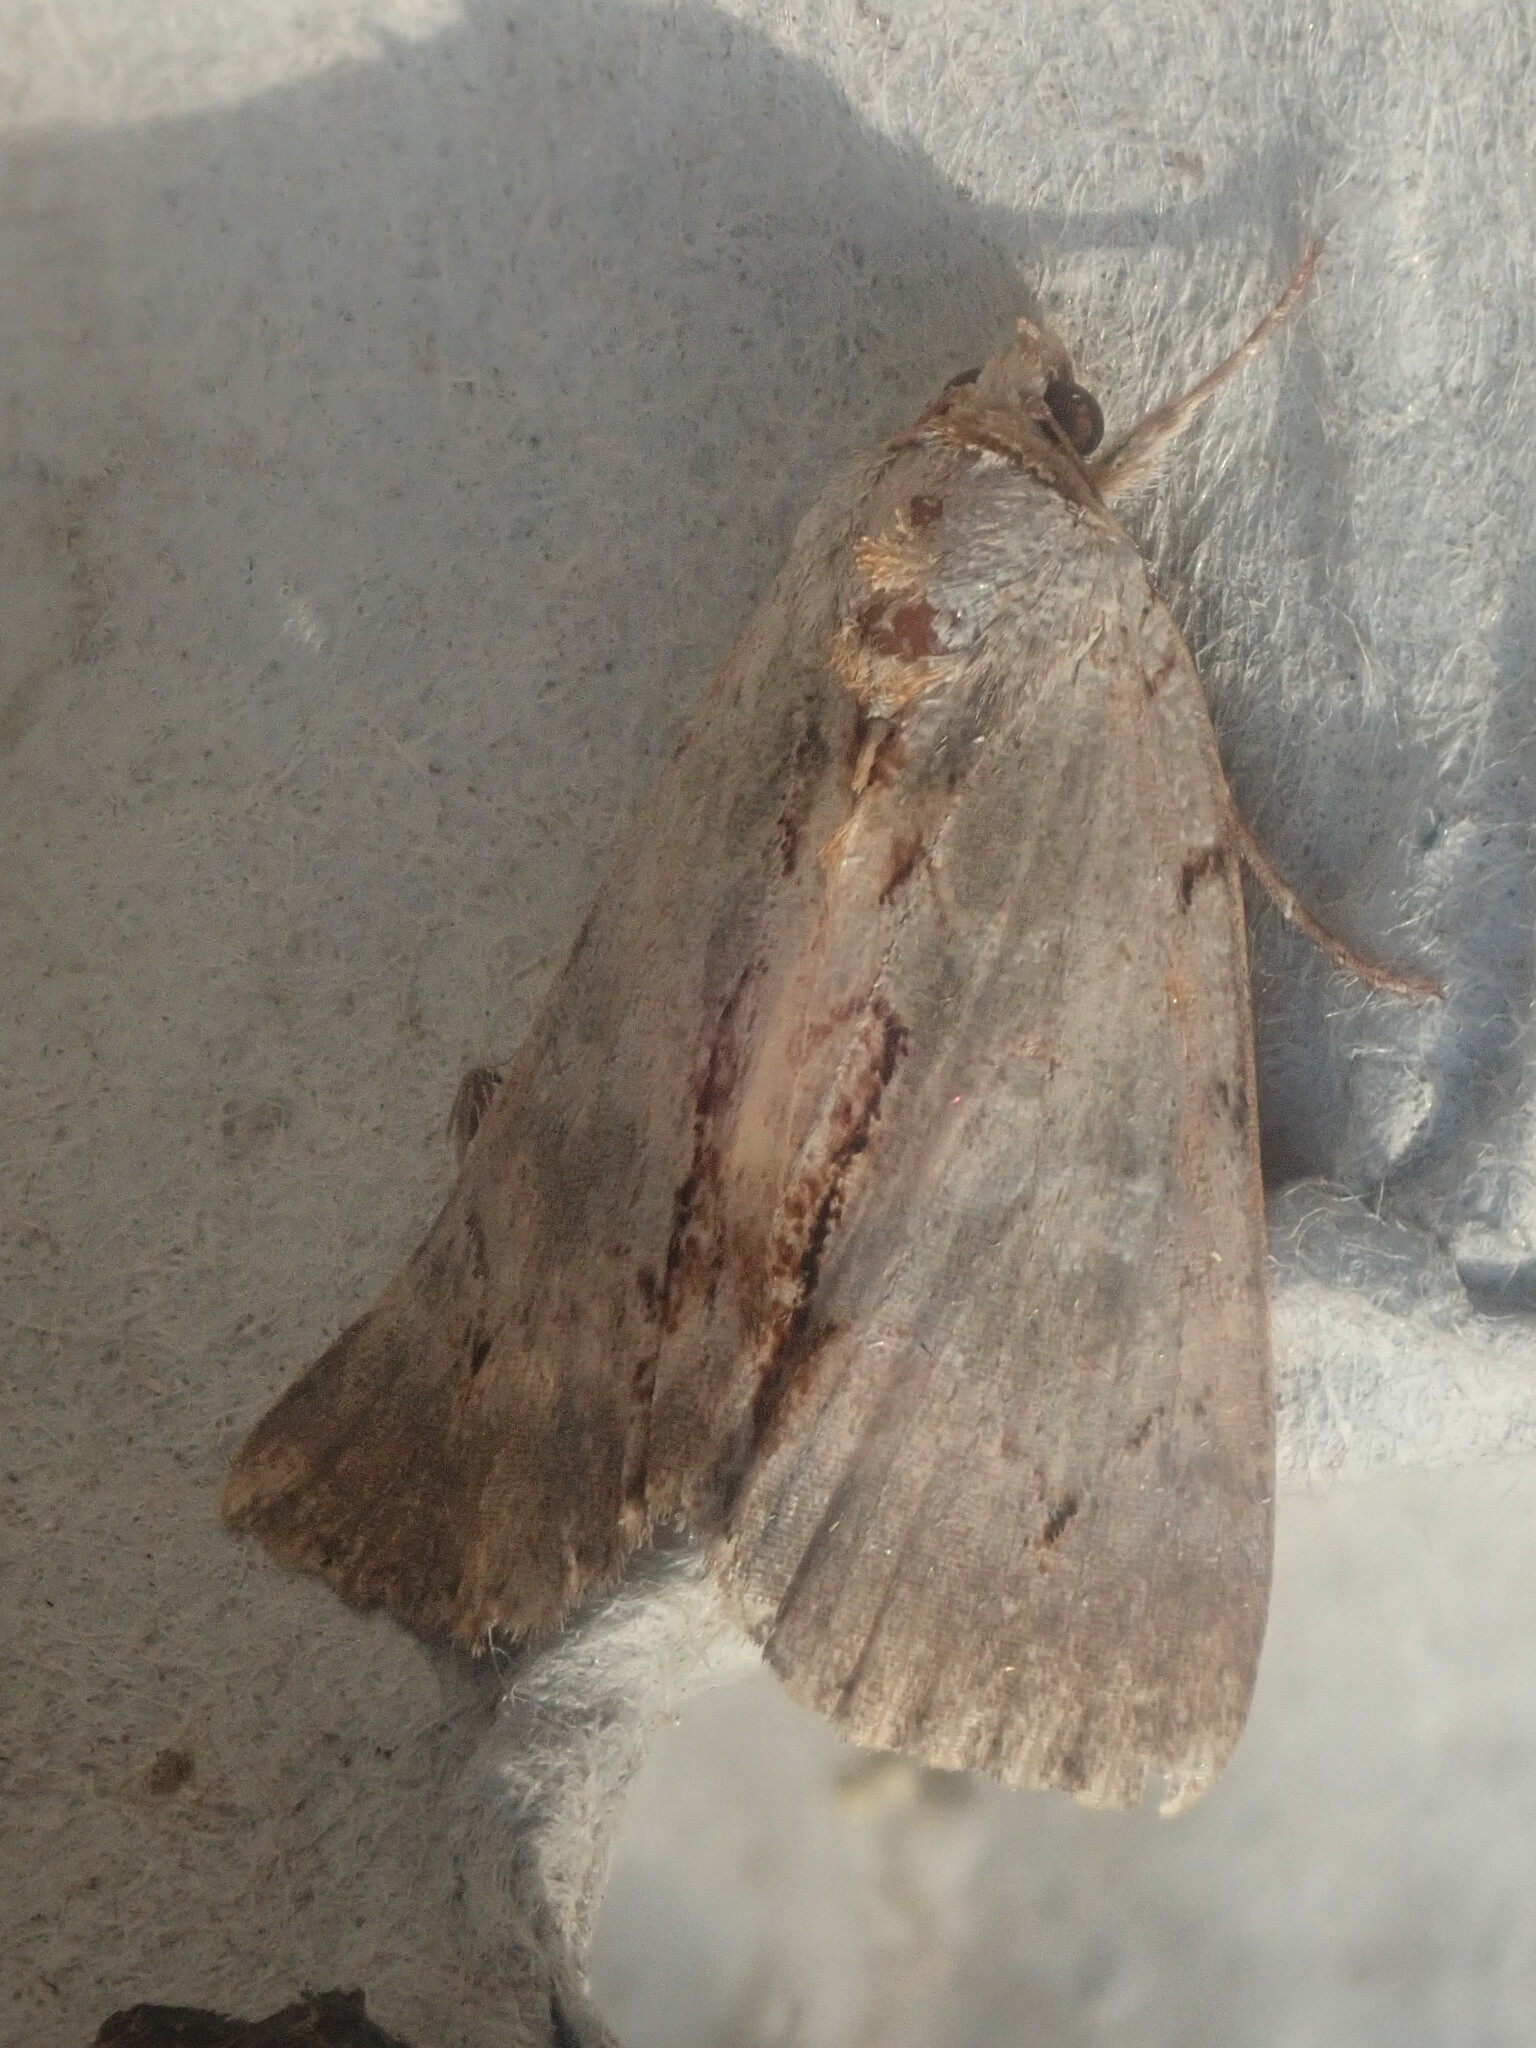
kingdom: Animalia
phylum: Arthropoda
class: Insecta
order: Lepidoptera
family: Erebidae
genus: Catocala
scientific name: Catocala grynea
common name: Woody underwing
